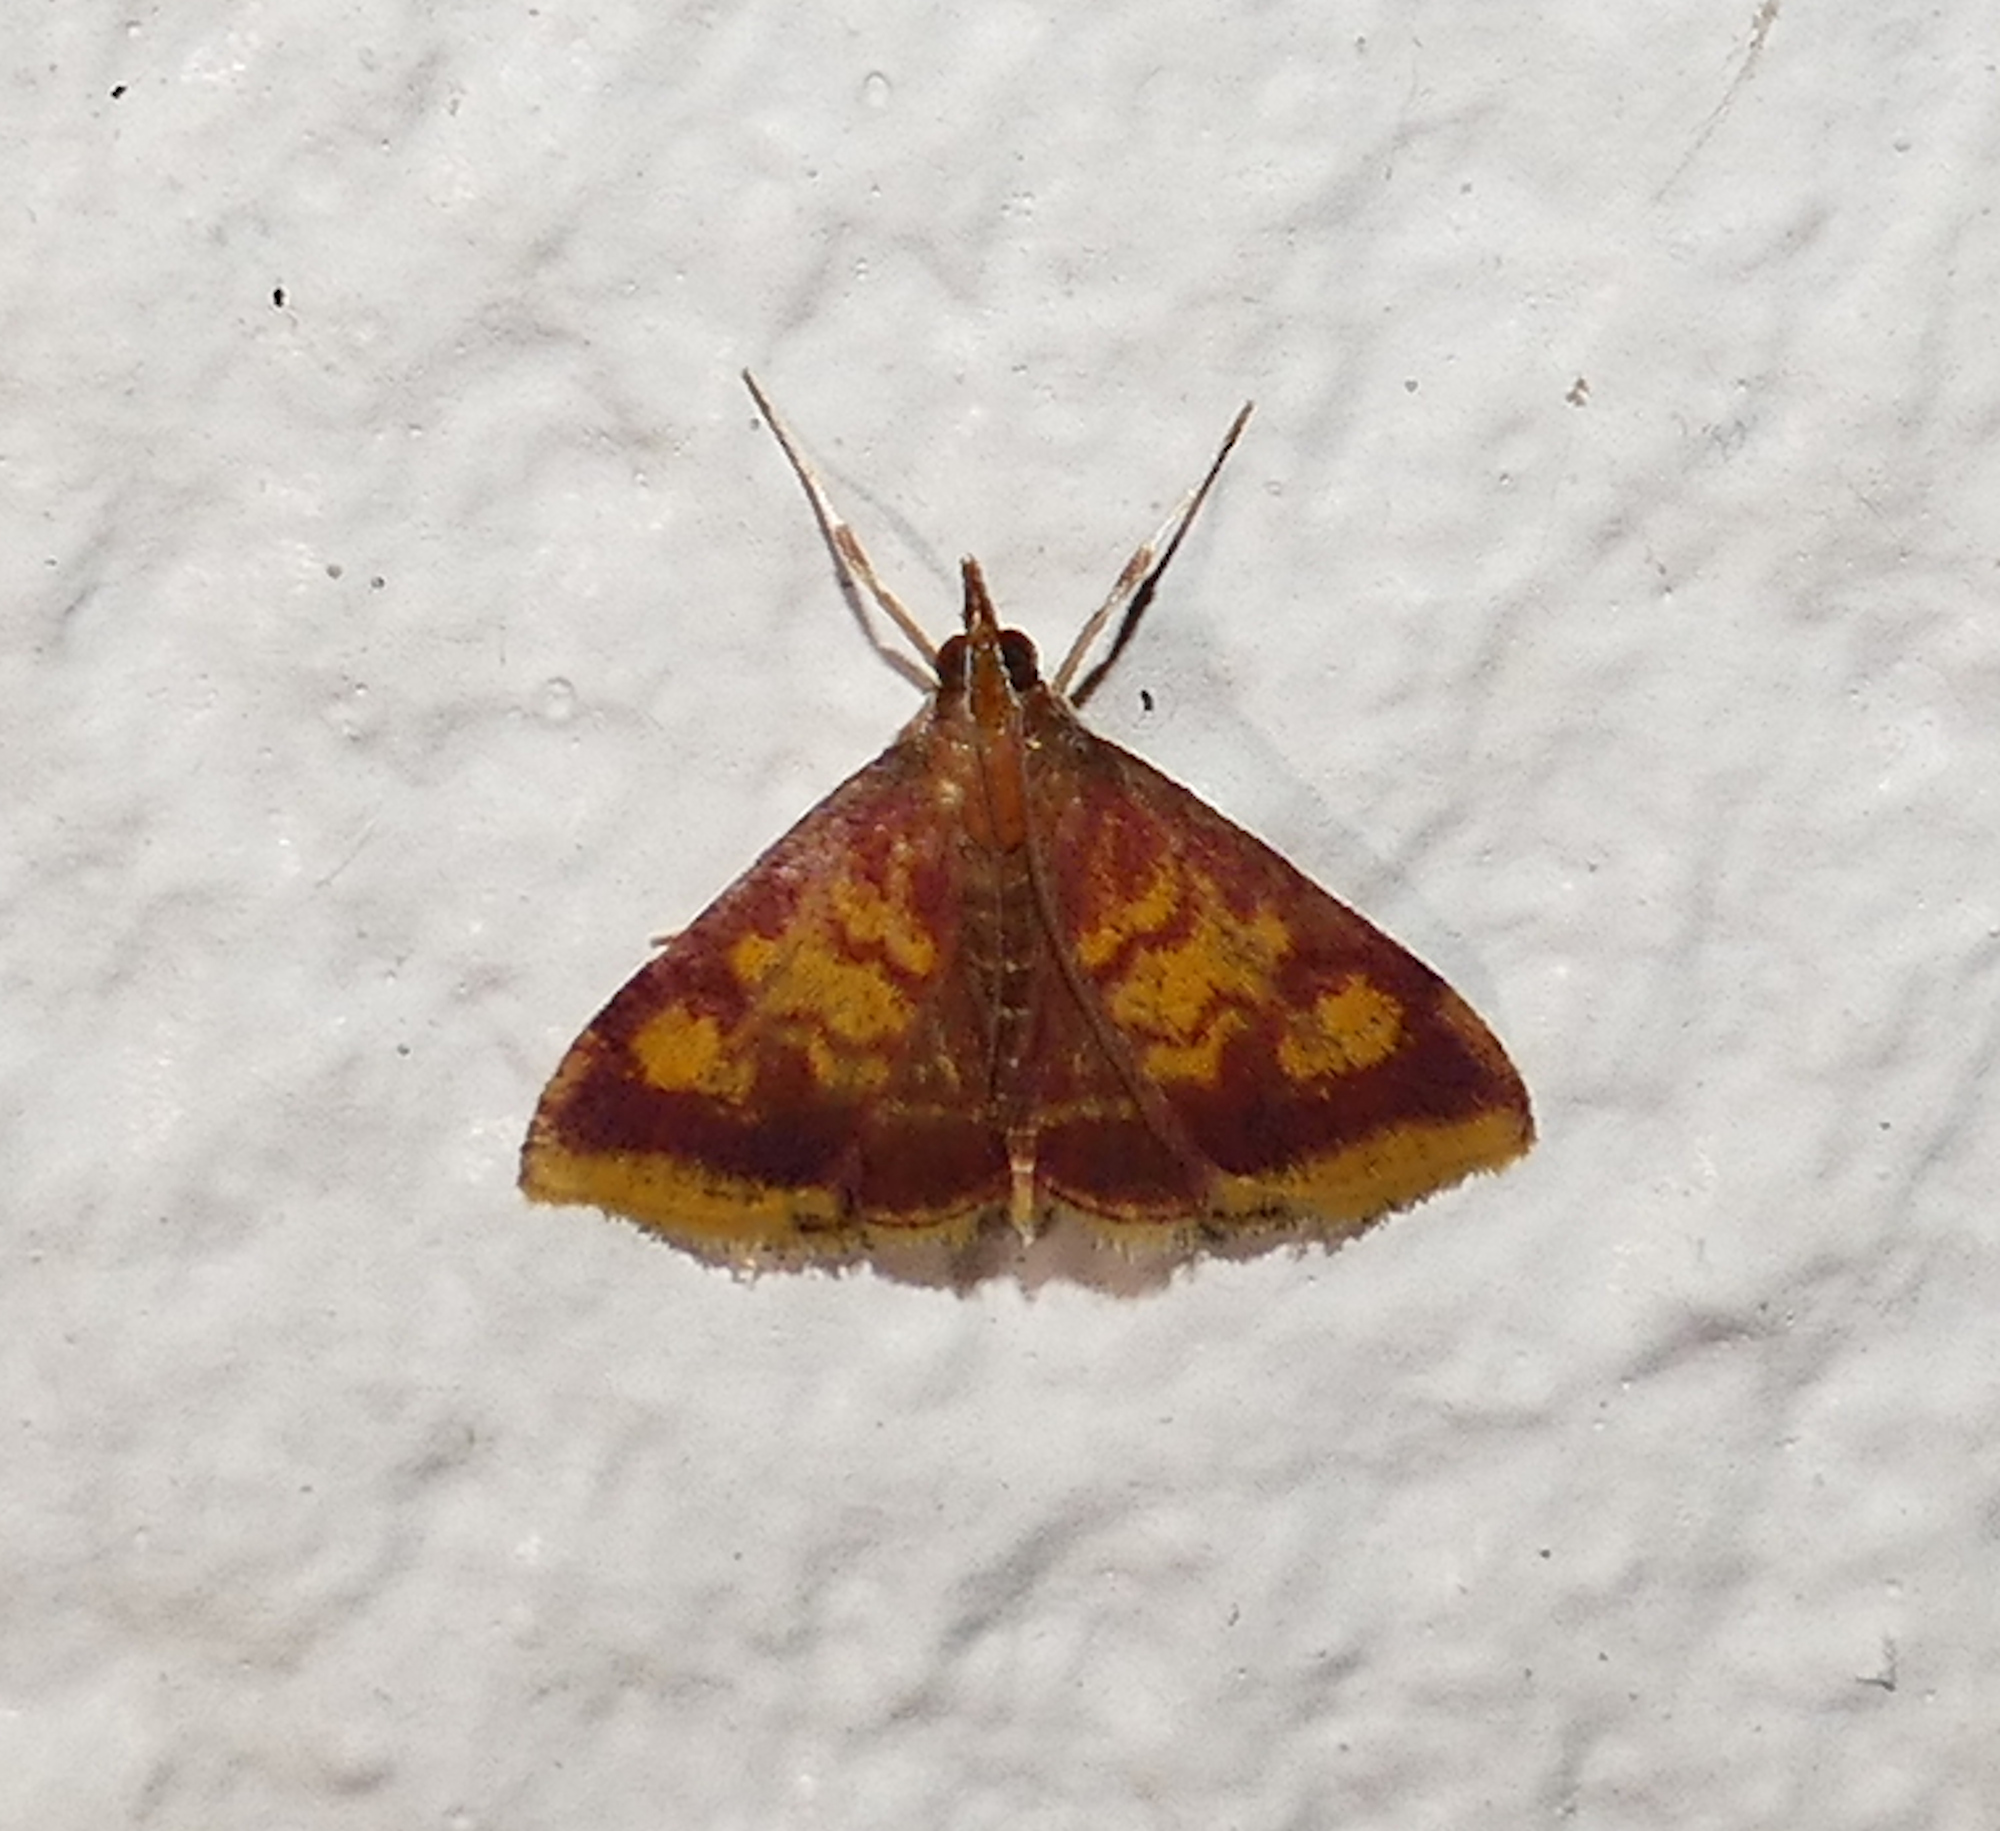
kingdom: Animalia
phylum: Arthropoda
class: Insecta
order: Lepidoptera
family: Crambidae
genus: Pyrausta
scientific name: Pyrausta acrionalis
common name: Mint-loving pyrausta moth
